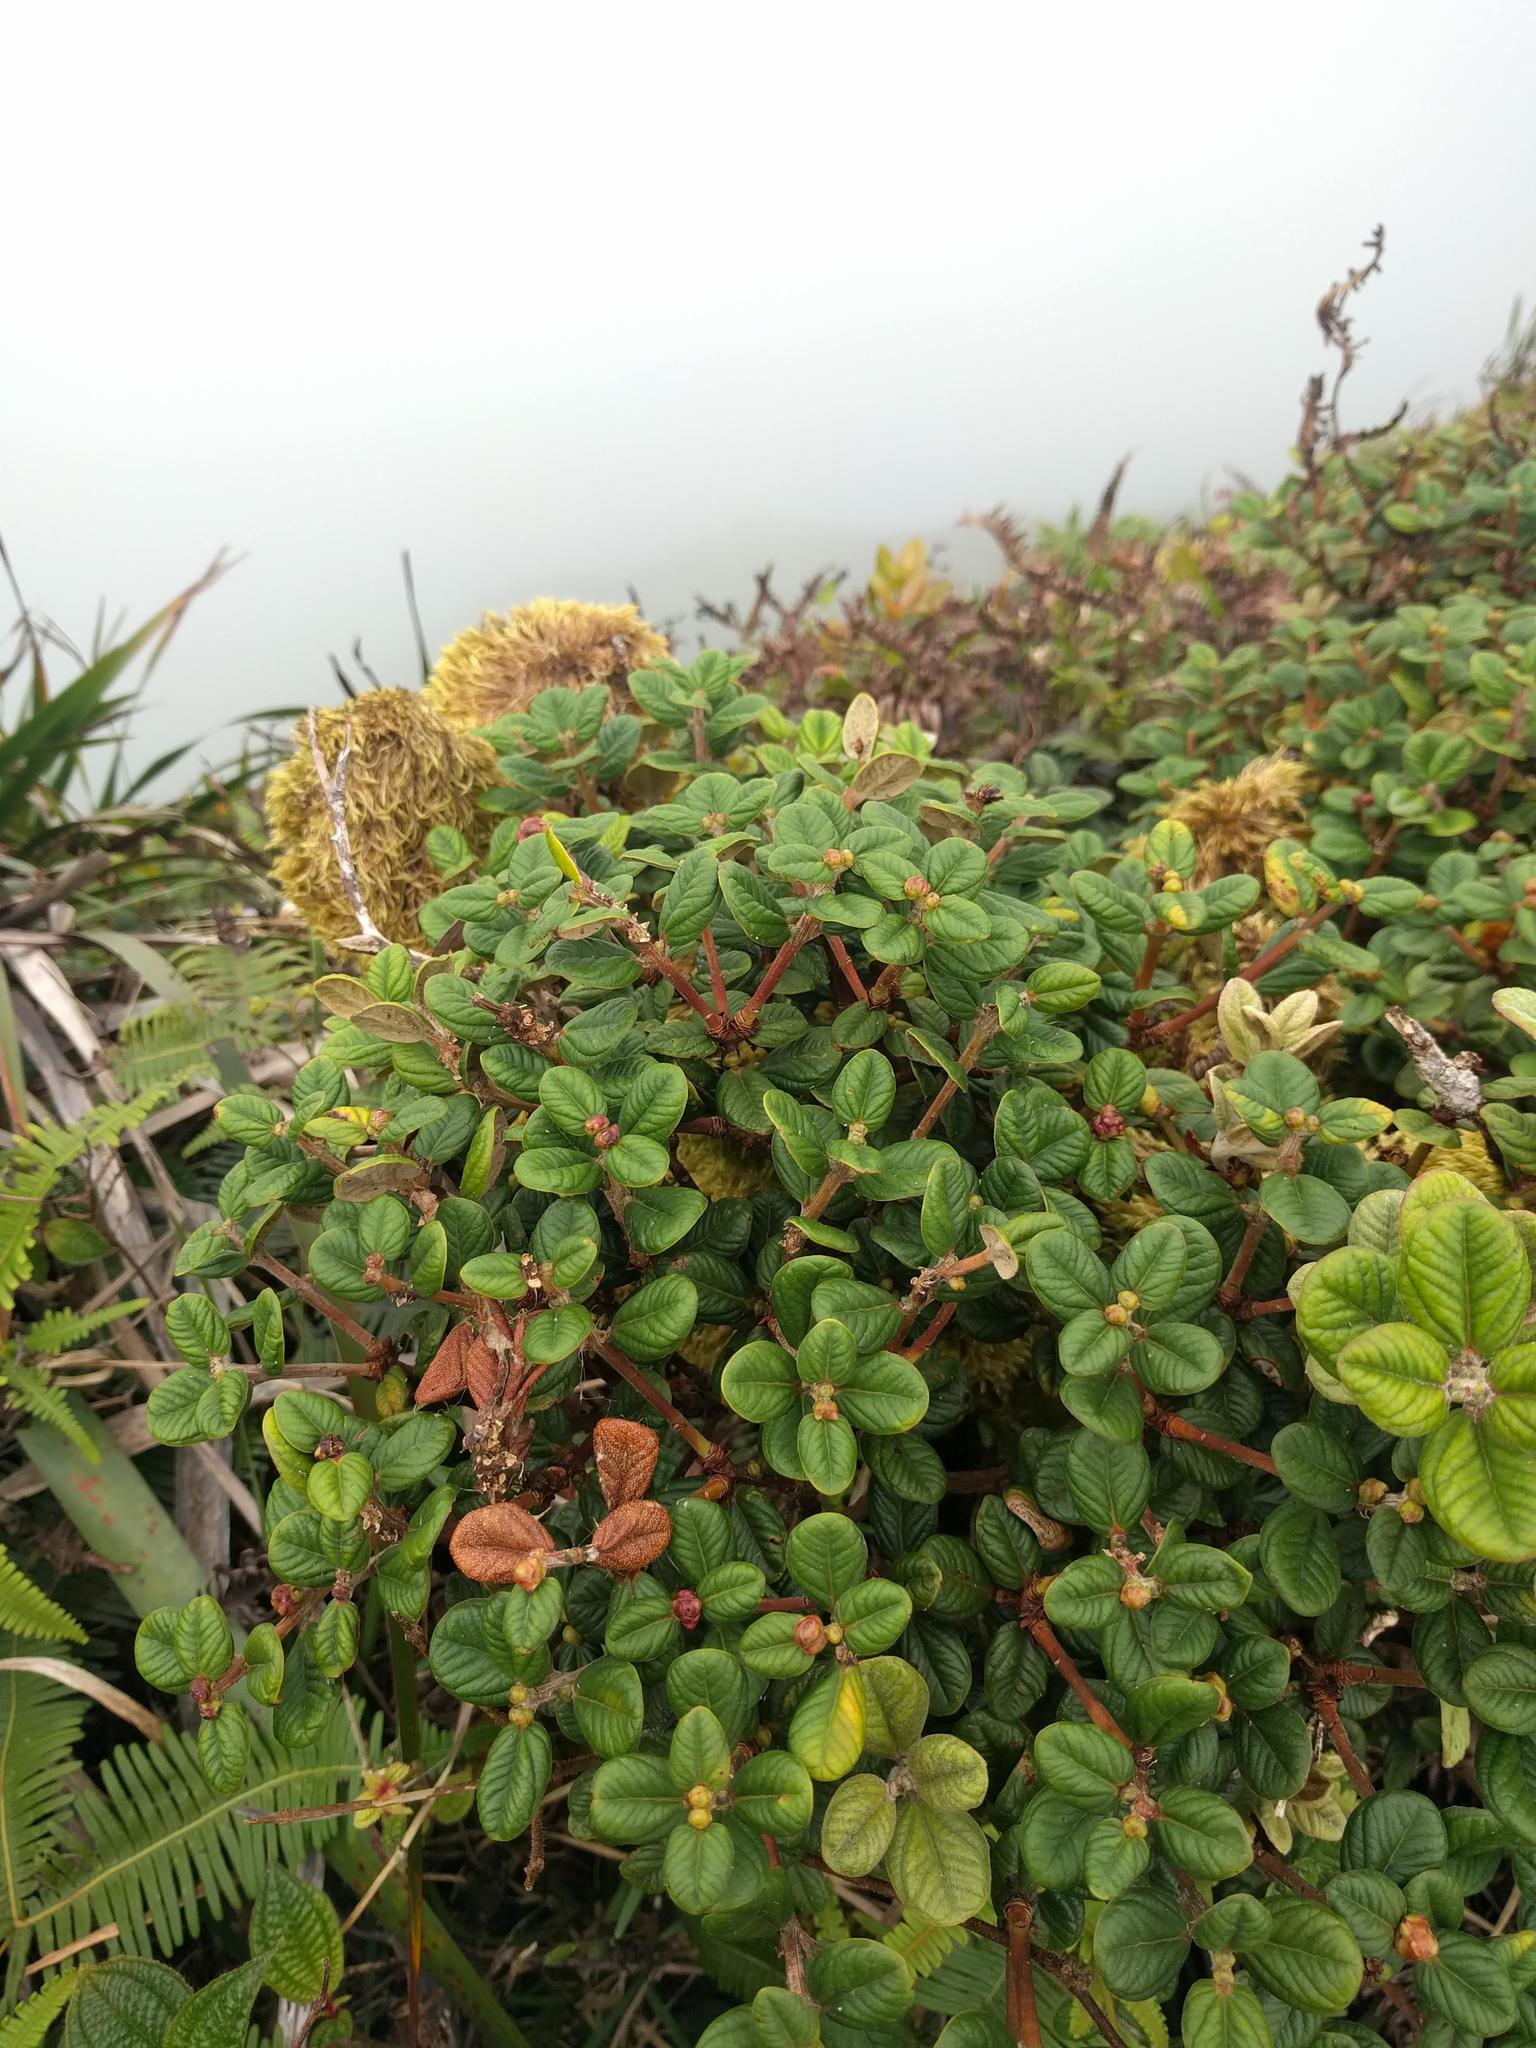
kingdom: Plantae
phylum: Tracheophyta
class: Magnoliopsida
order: Myrtales
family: Myrtaceae
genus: Metrosideros
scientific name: Metrosideros rugosa
